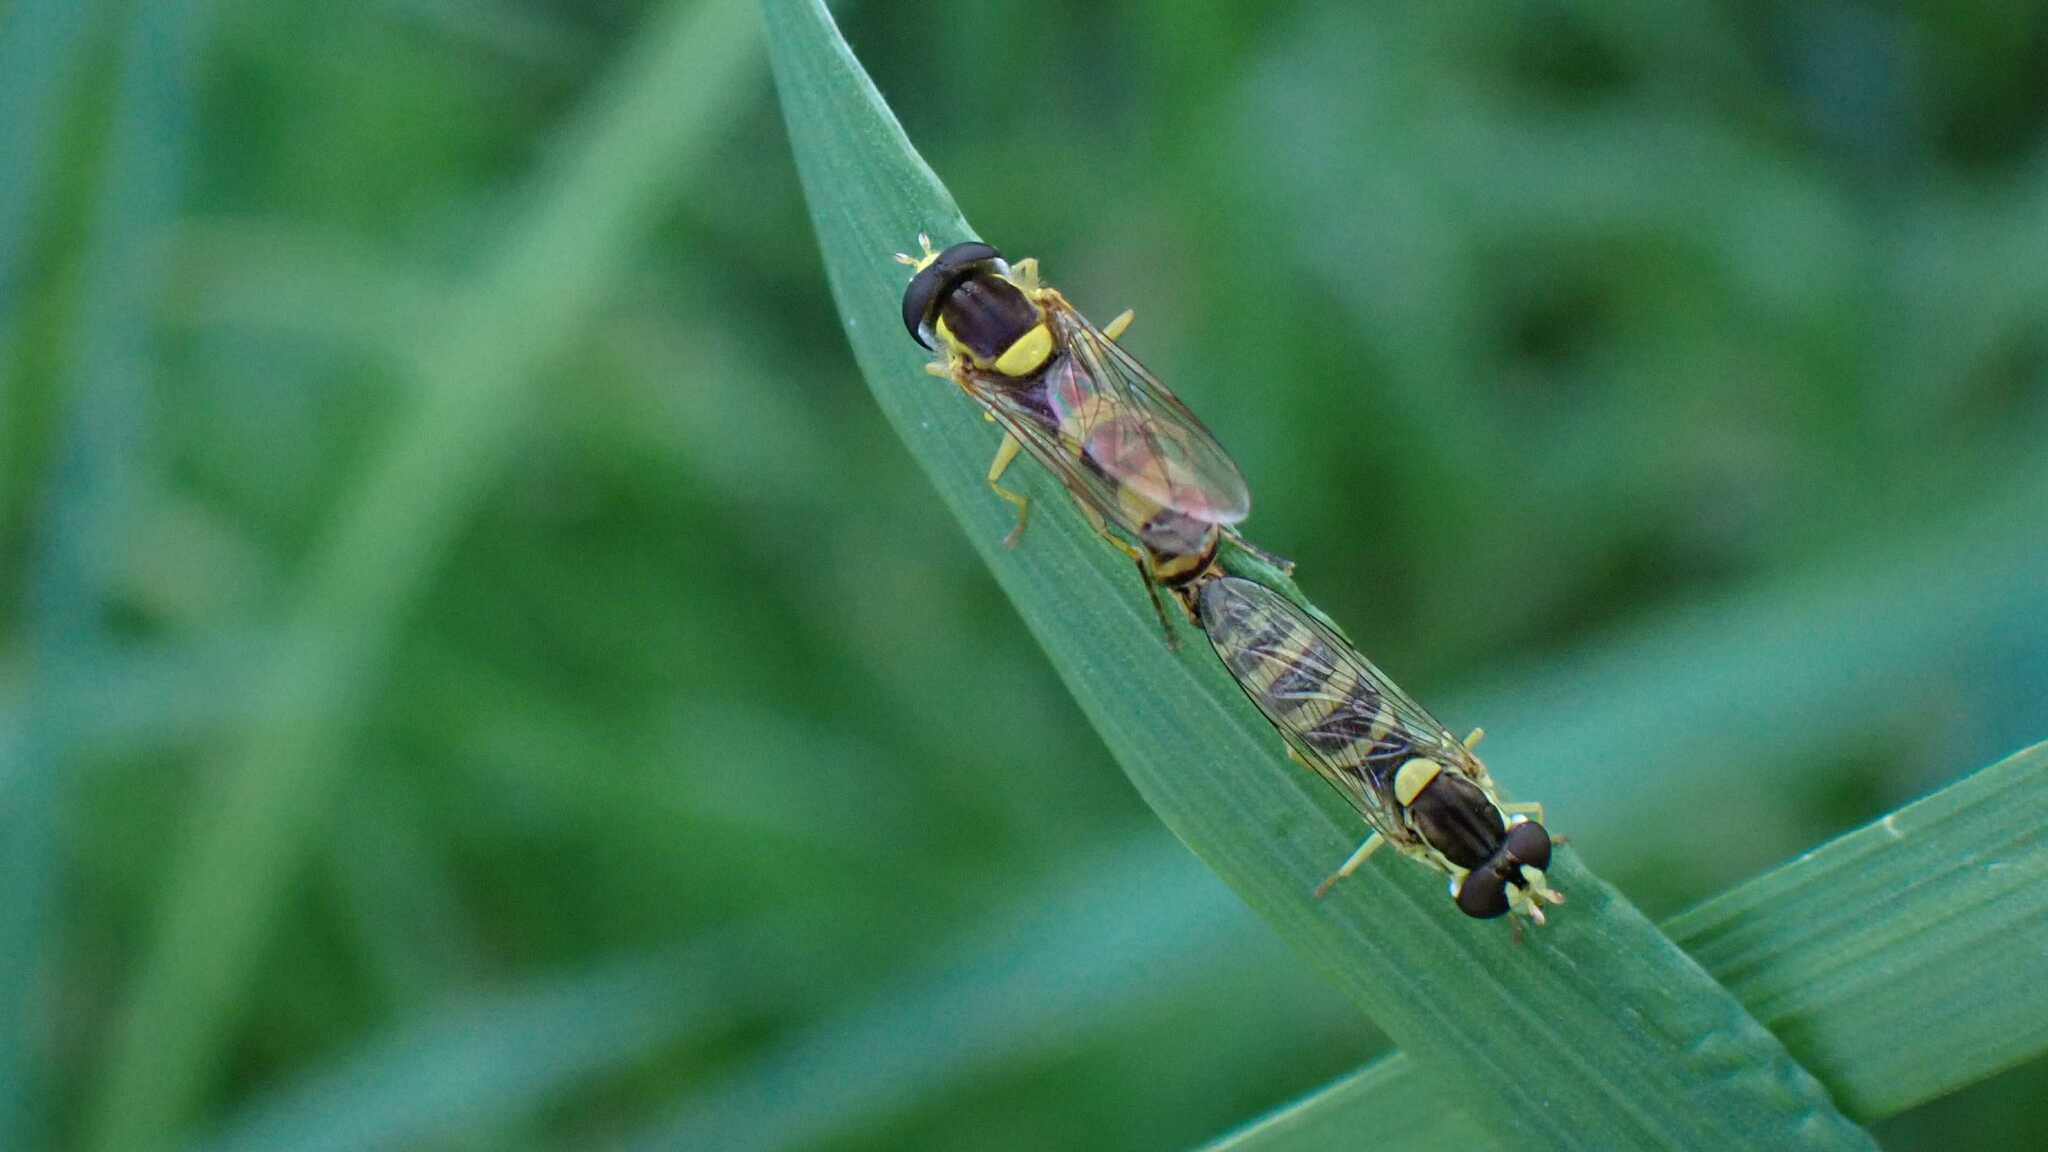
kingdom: Animalia
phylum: Arthropoda
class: Insecta
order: Diptera
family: Syrphidae
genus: Sphaerophoria
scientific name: Sphaerophoria scripta
